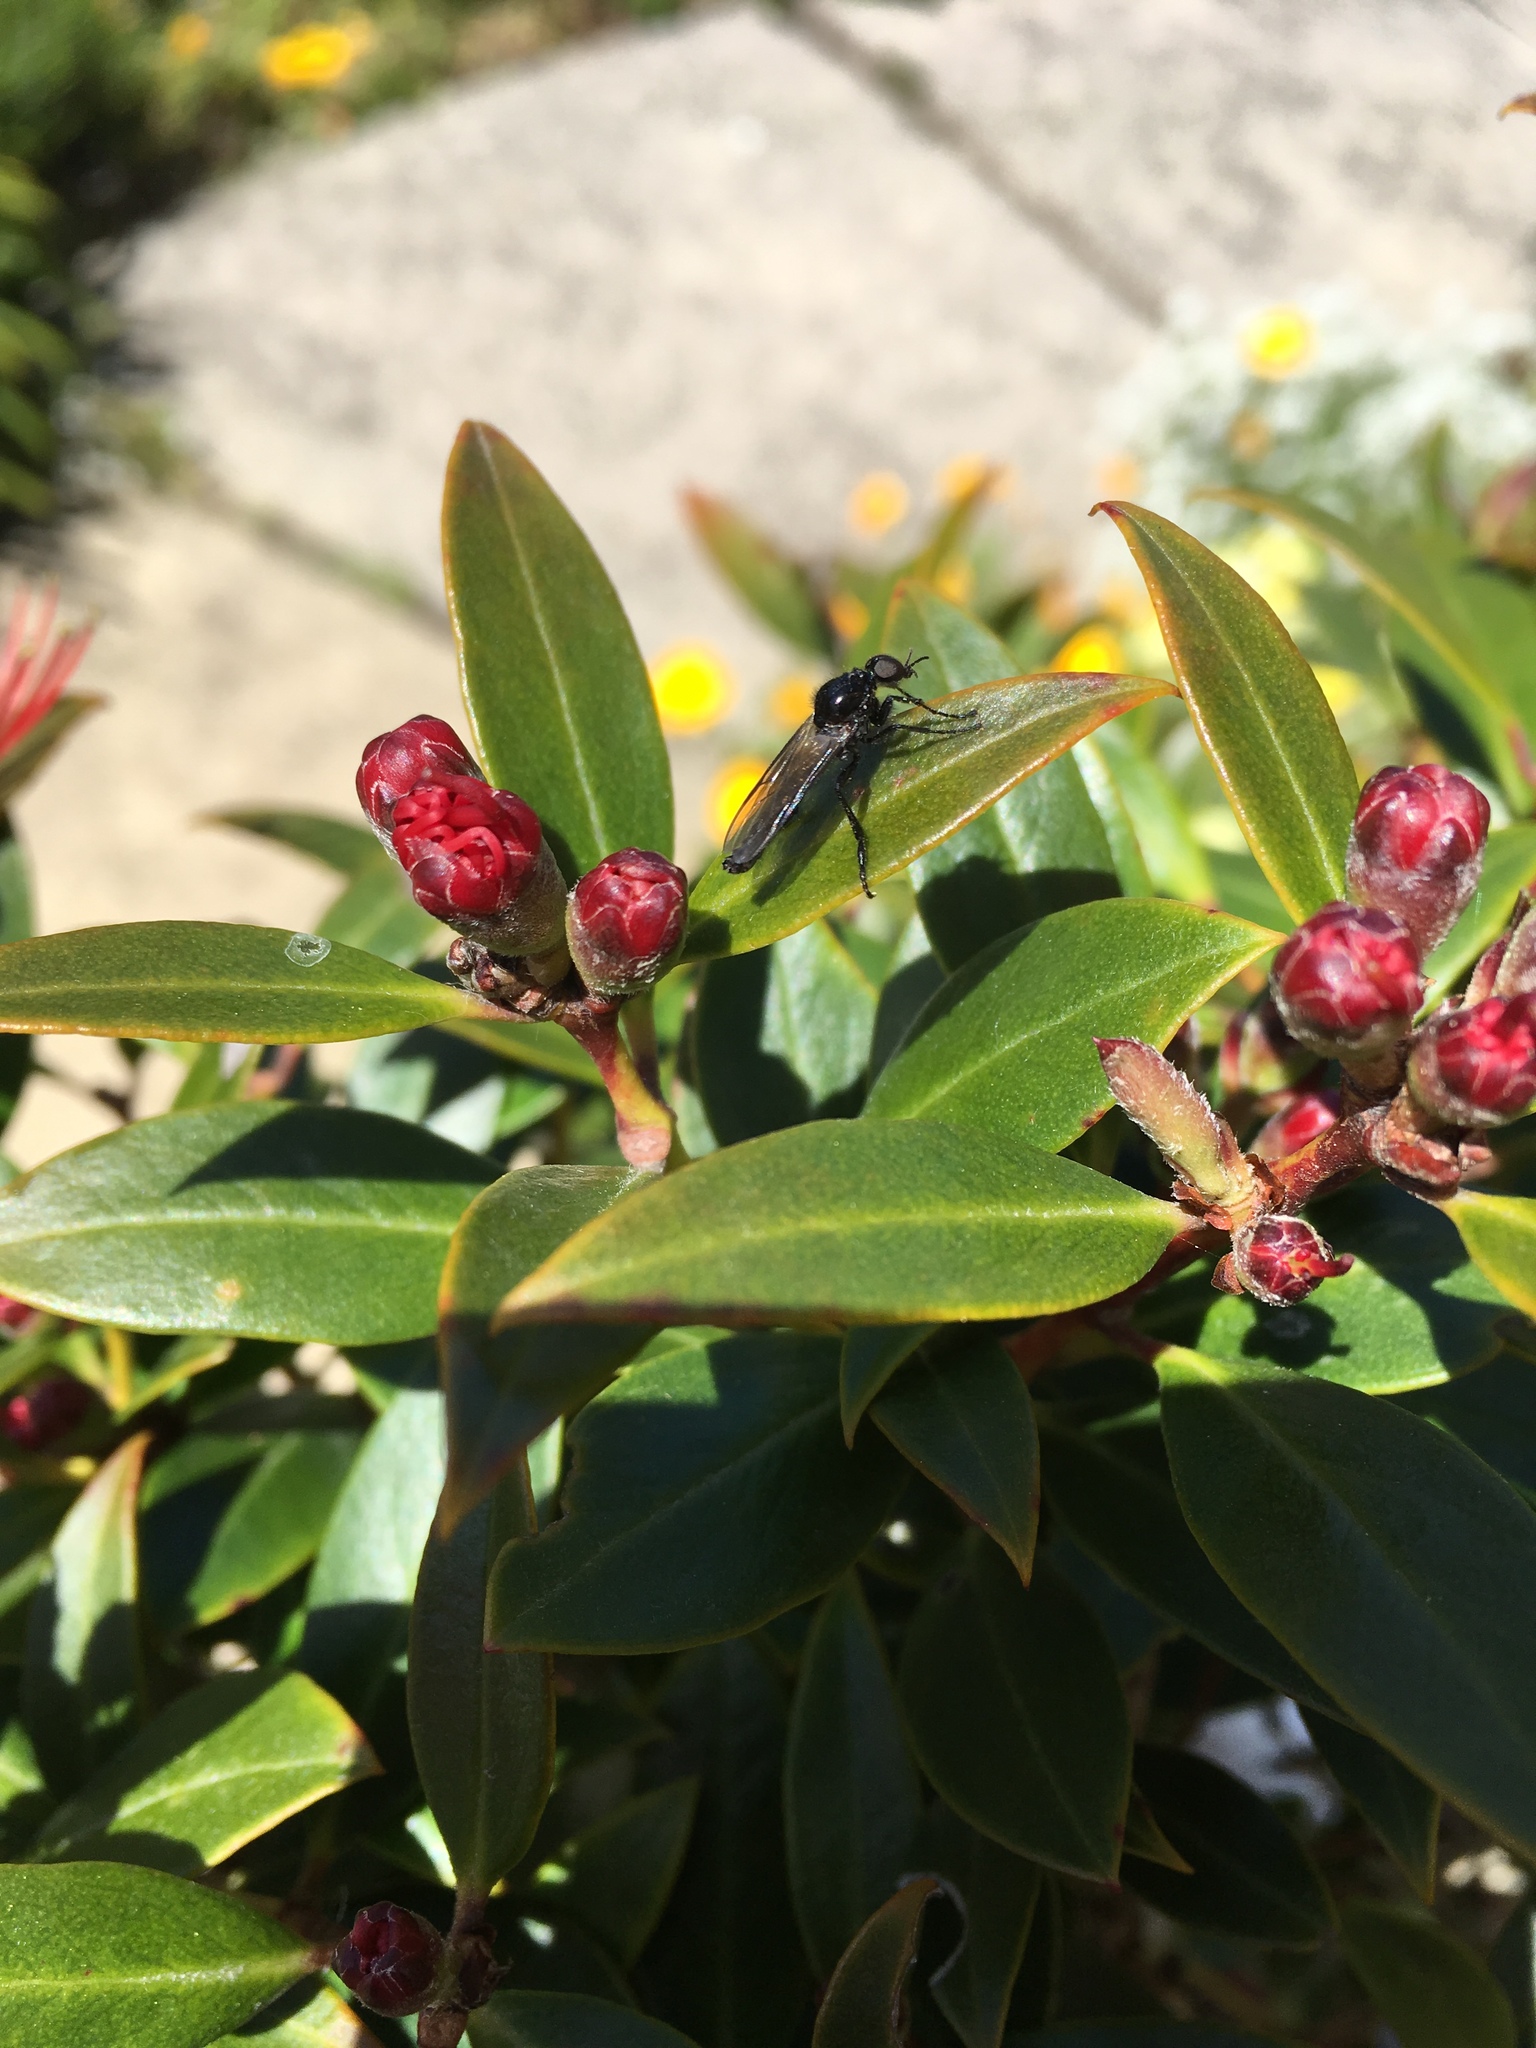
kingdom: Animalia
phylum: Arthropoda
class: Insecta
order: Diptera
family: Bibionidae
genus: Dilophus
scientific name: Dilophus nigrostigma
